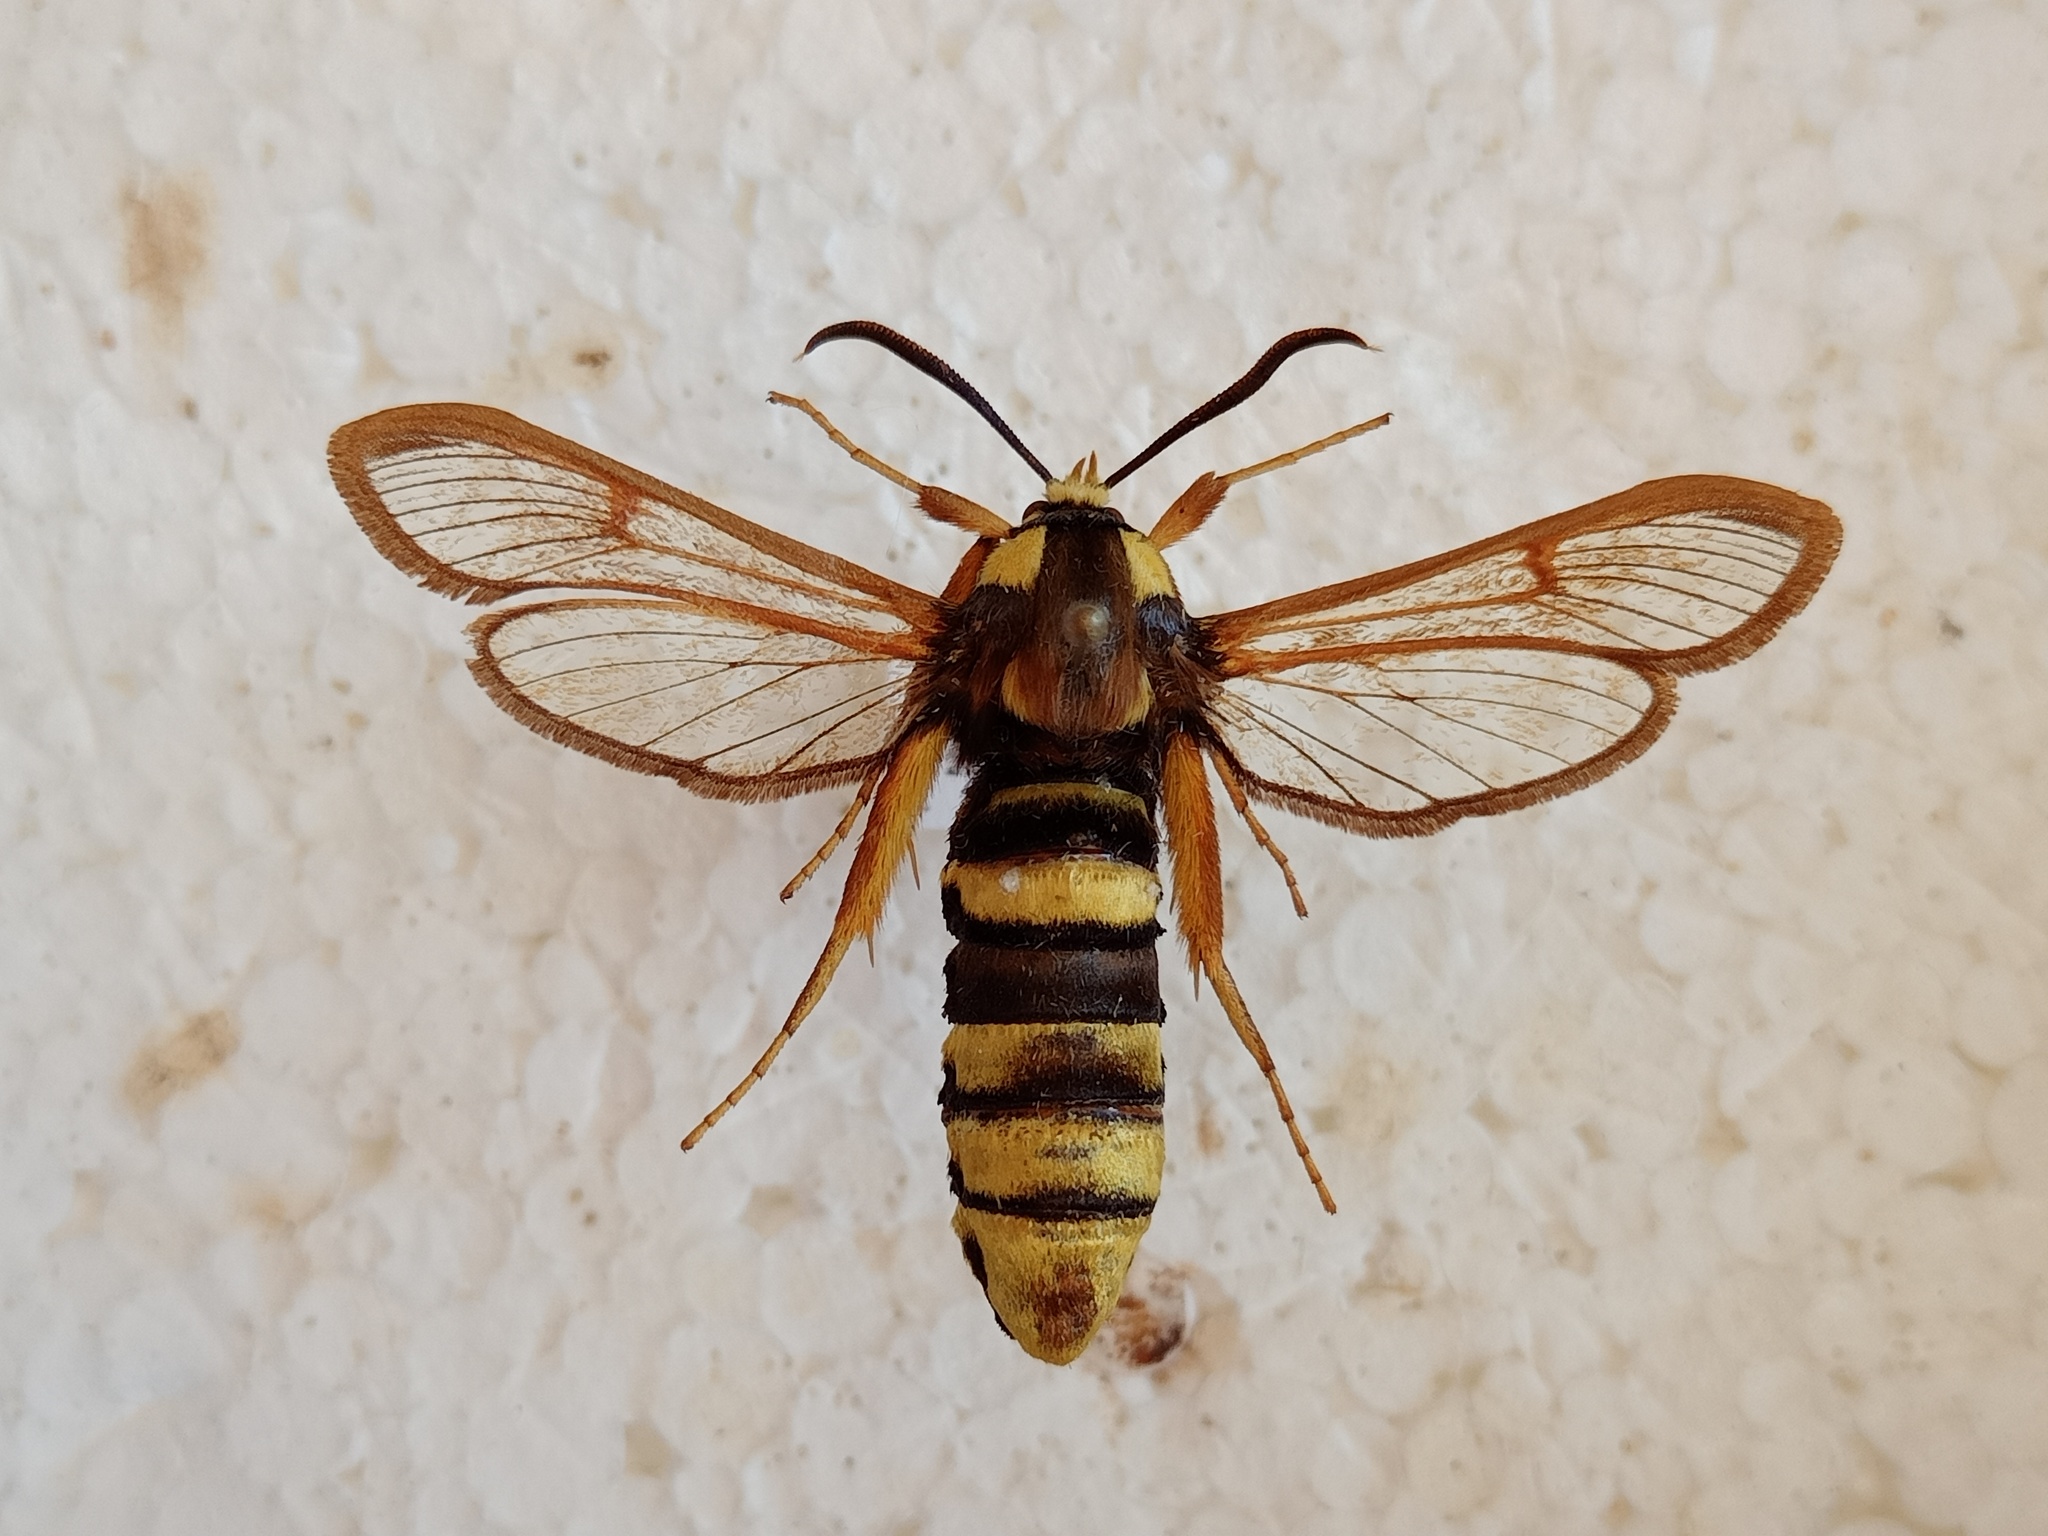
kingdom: Animalia
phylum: Arthropoda
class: Insecta
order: Lepidoptera
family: Sesiidae
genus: Sesia
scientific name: Sesia apiformis
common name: Hornet moth
